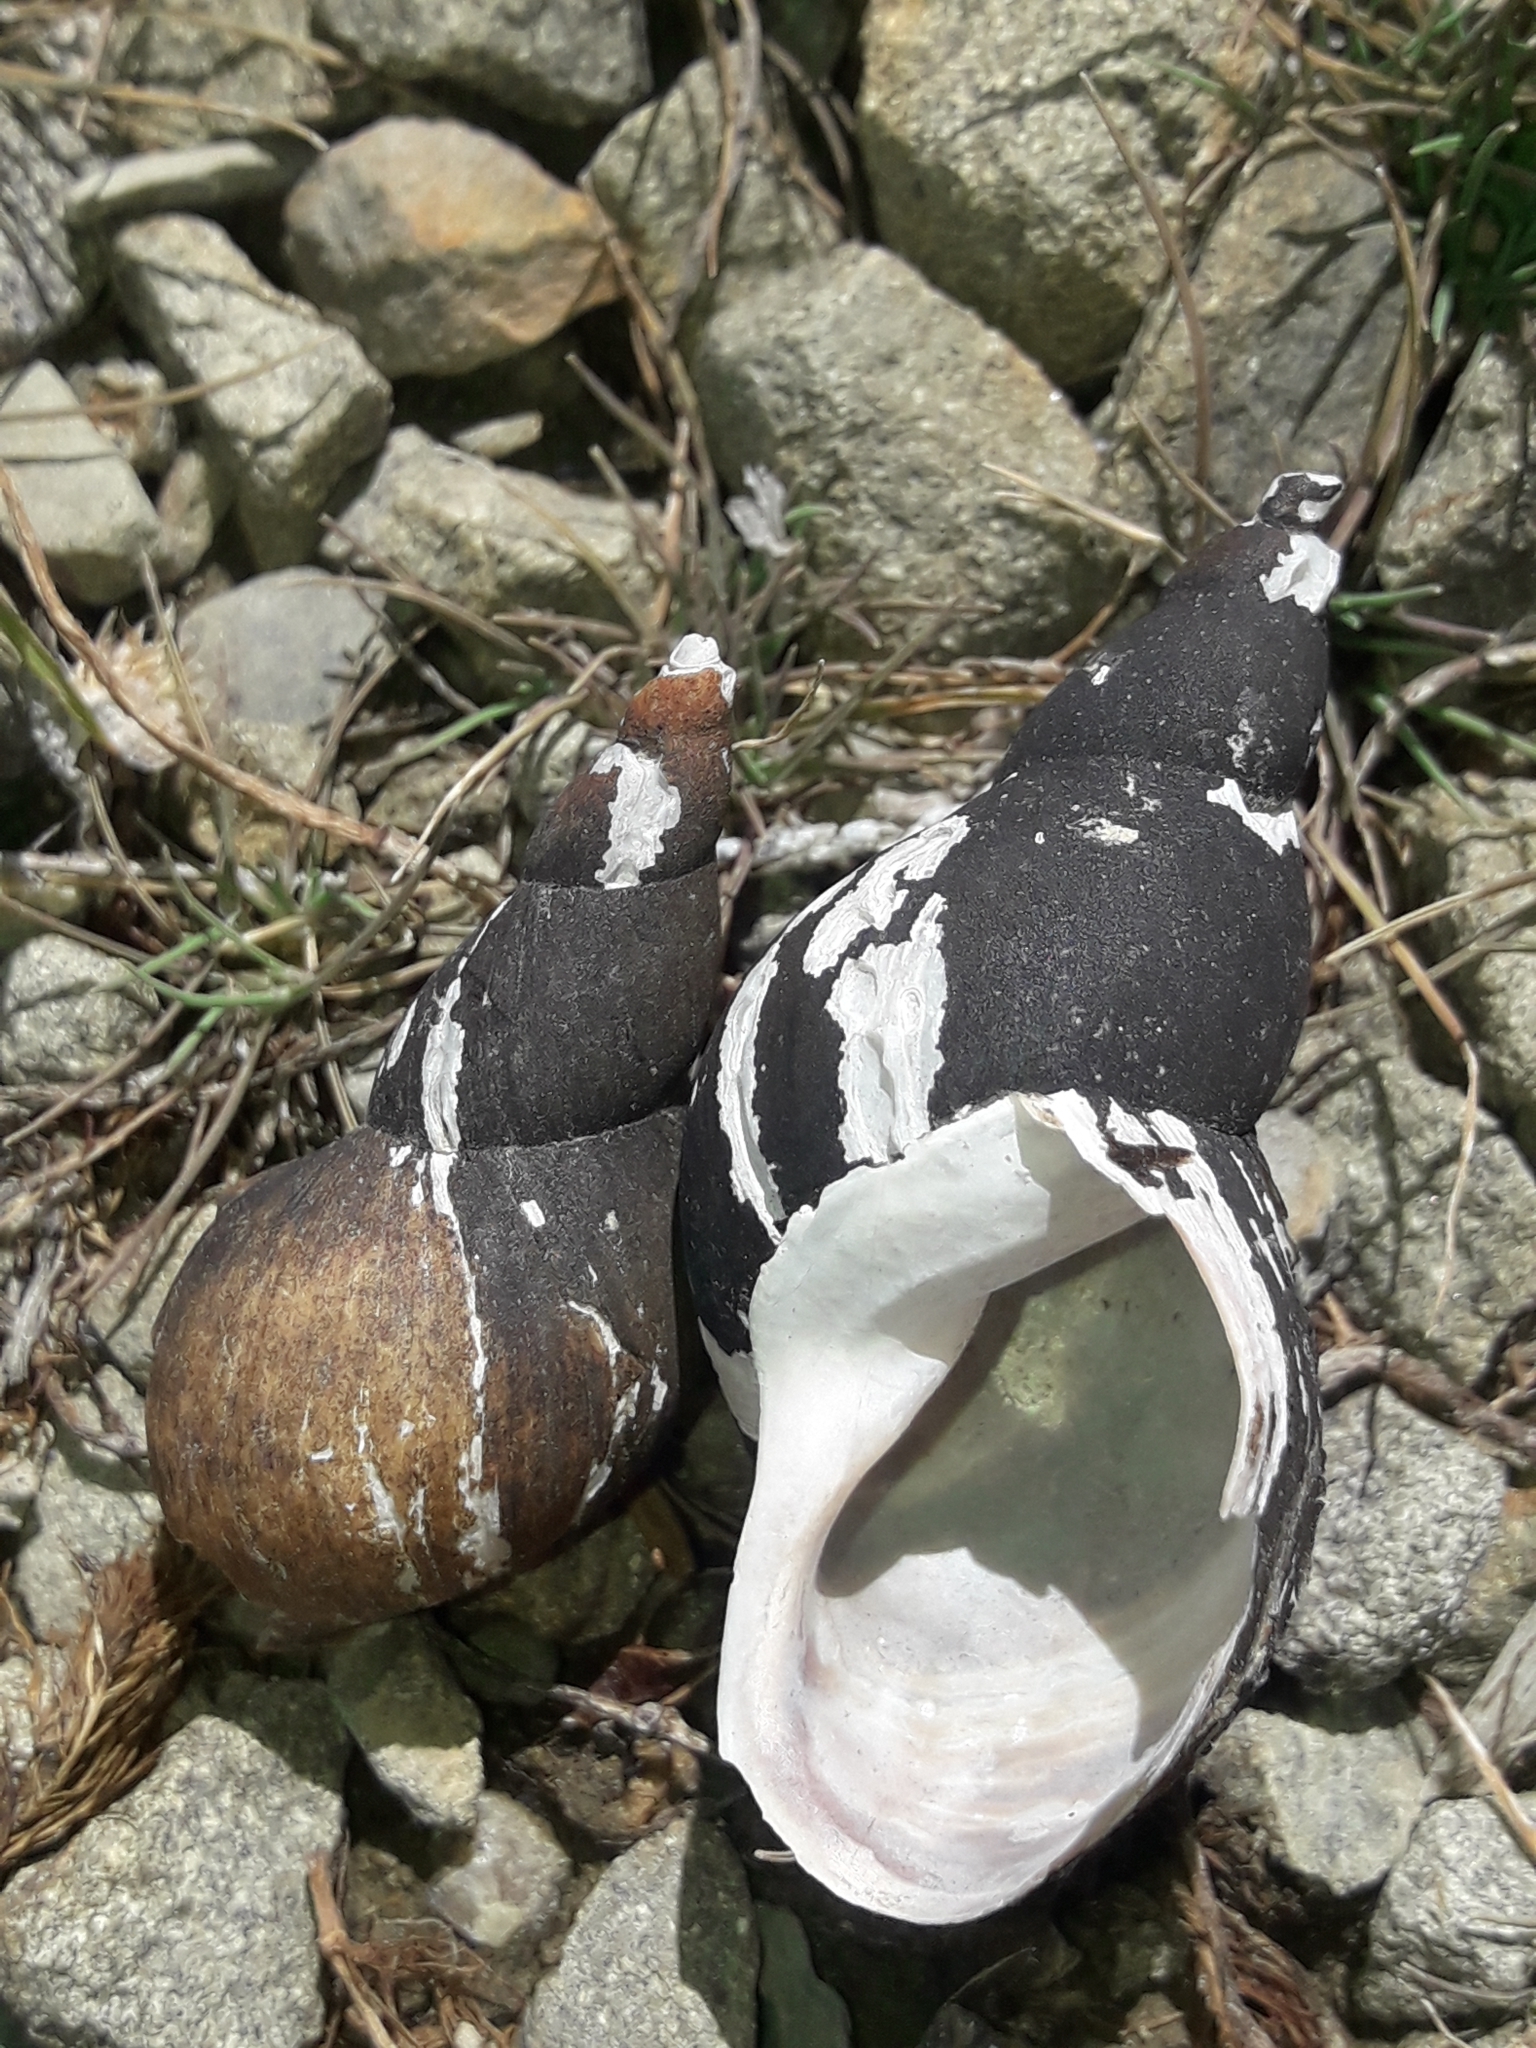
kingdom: Animalia
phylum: Mollusca
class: Gastropoda
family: Lymnaeidae
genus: Lymnaea
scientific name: Lymnaea stagnalis
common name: Great pond snail
